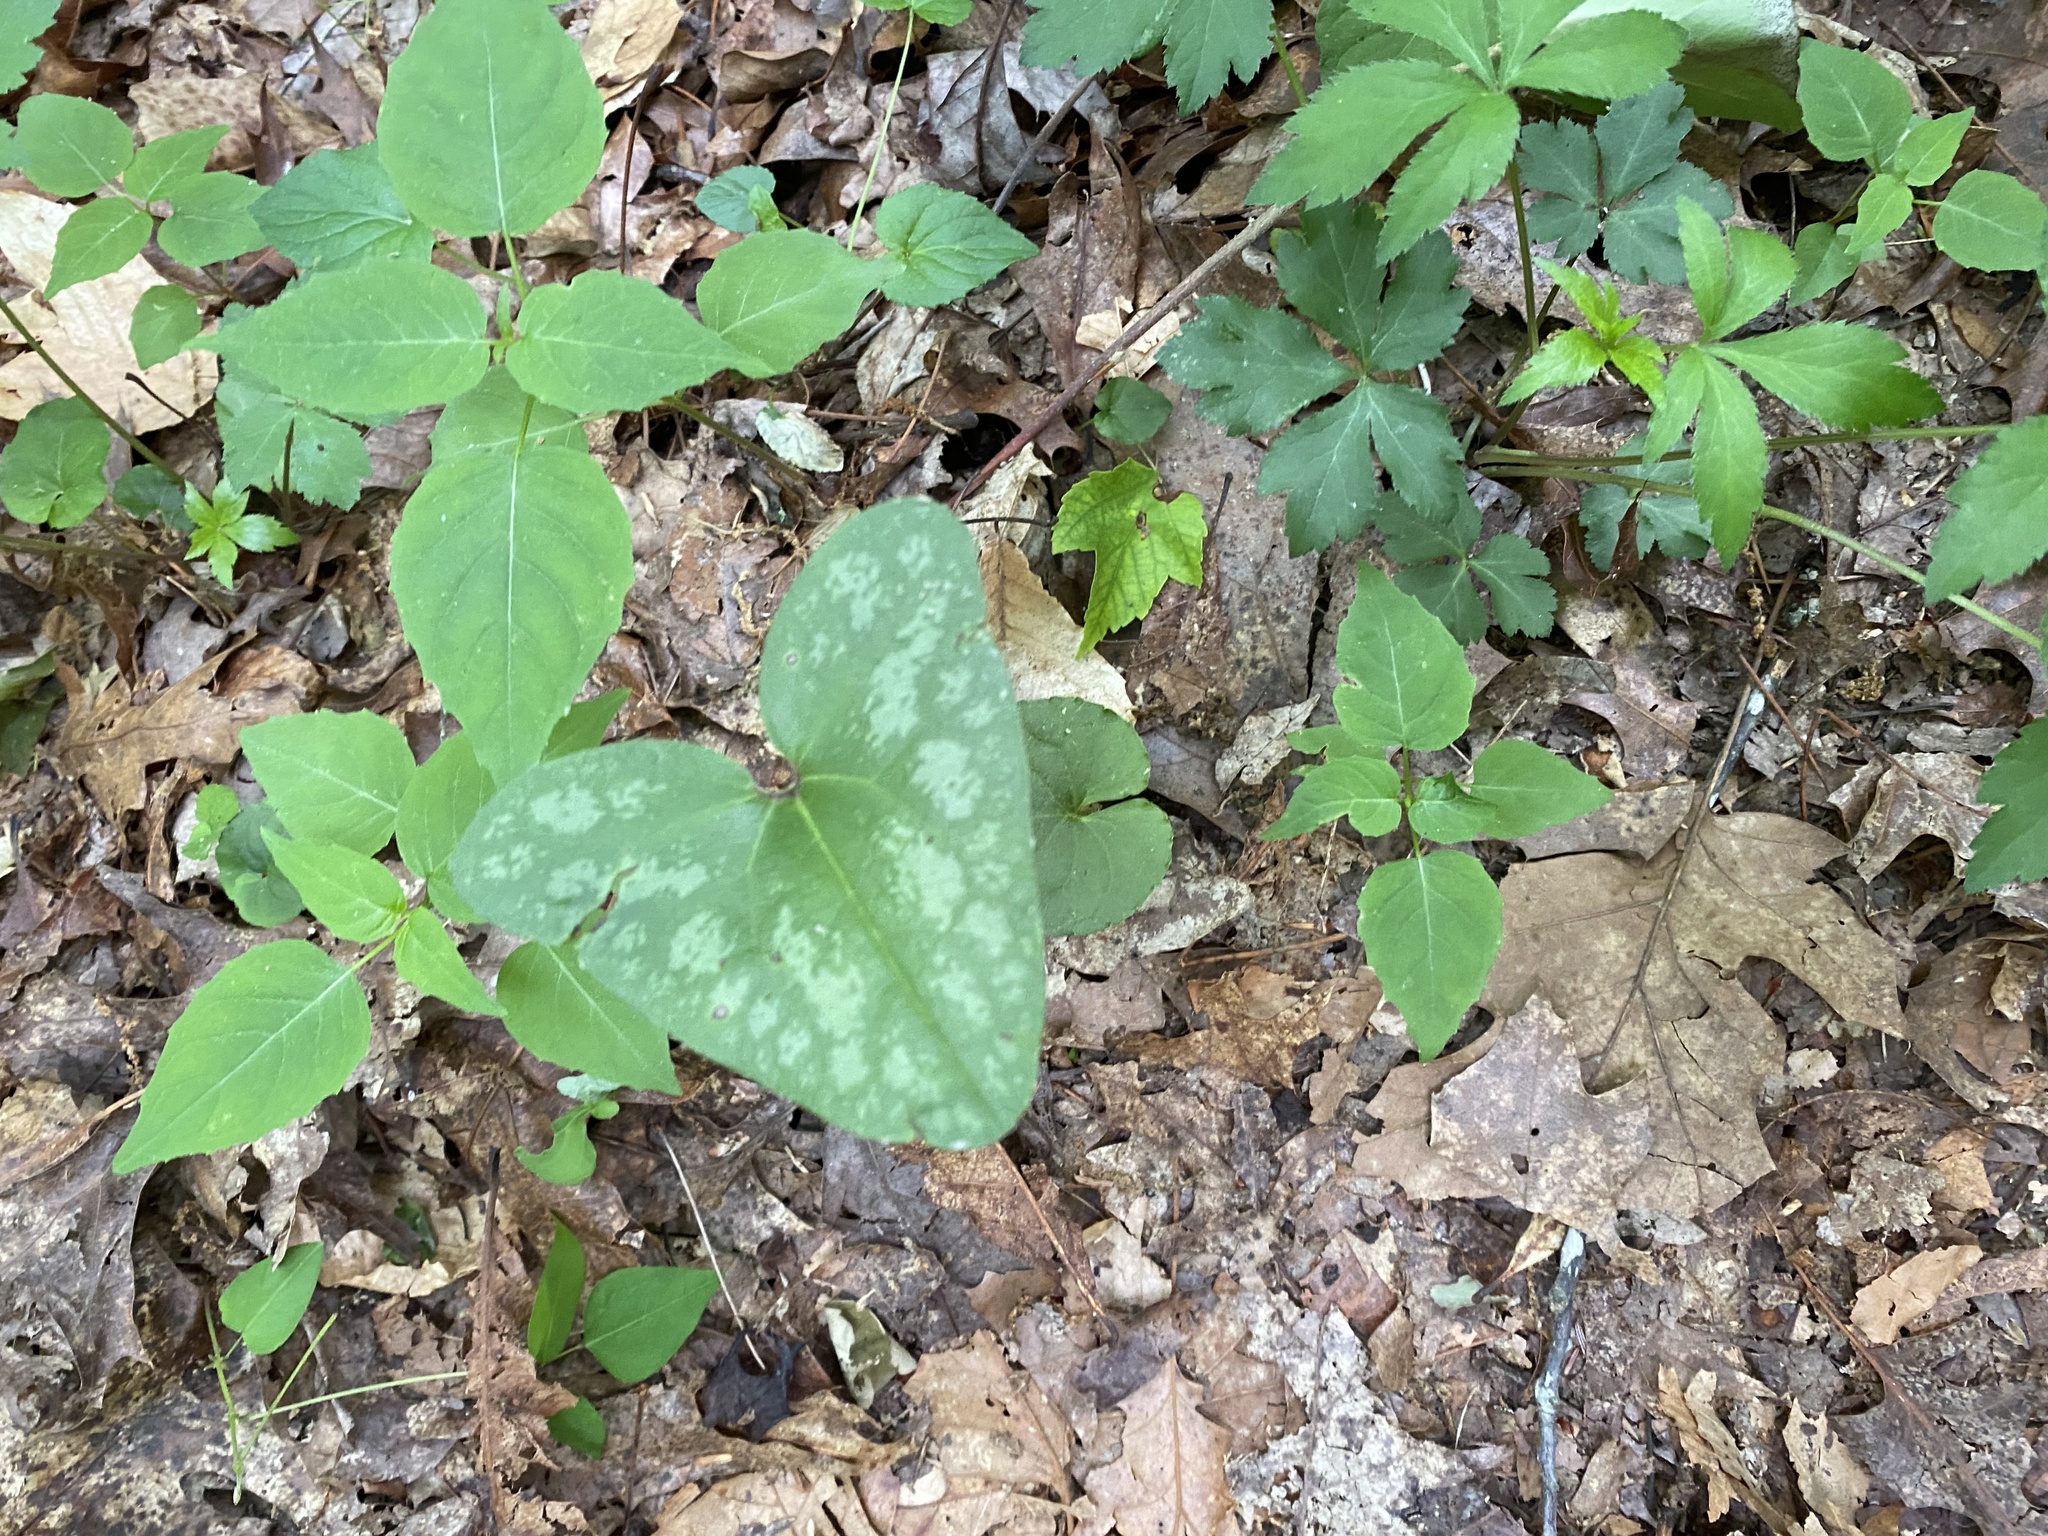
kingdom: Plantae
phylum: Tracheophyta
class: Magnoliopsida
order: Piperales
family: Aristolochiaceae
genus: Hexastylis
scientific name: Hexastylis arifolia
